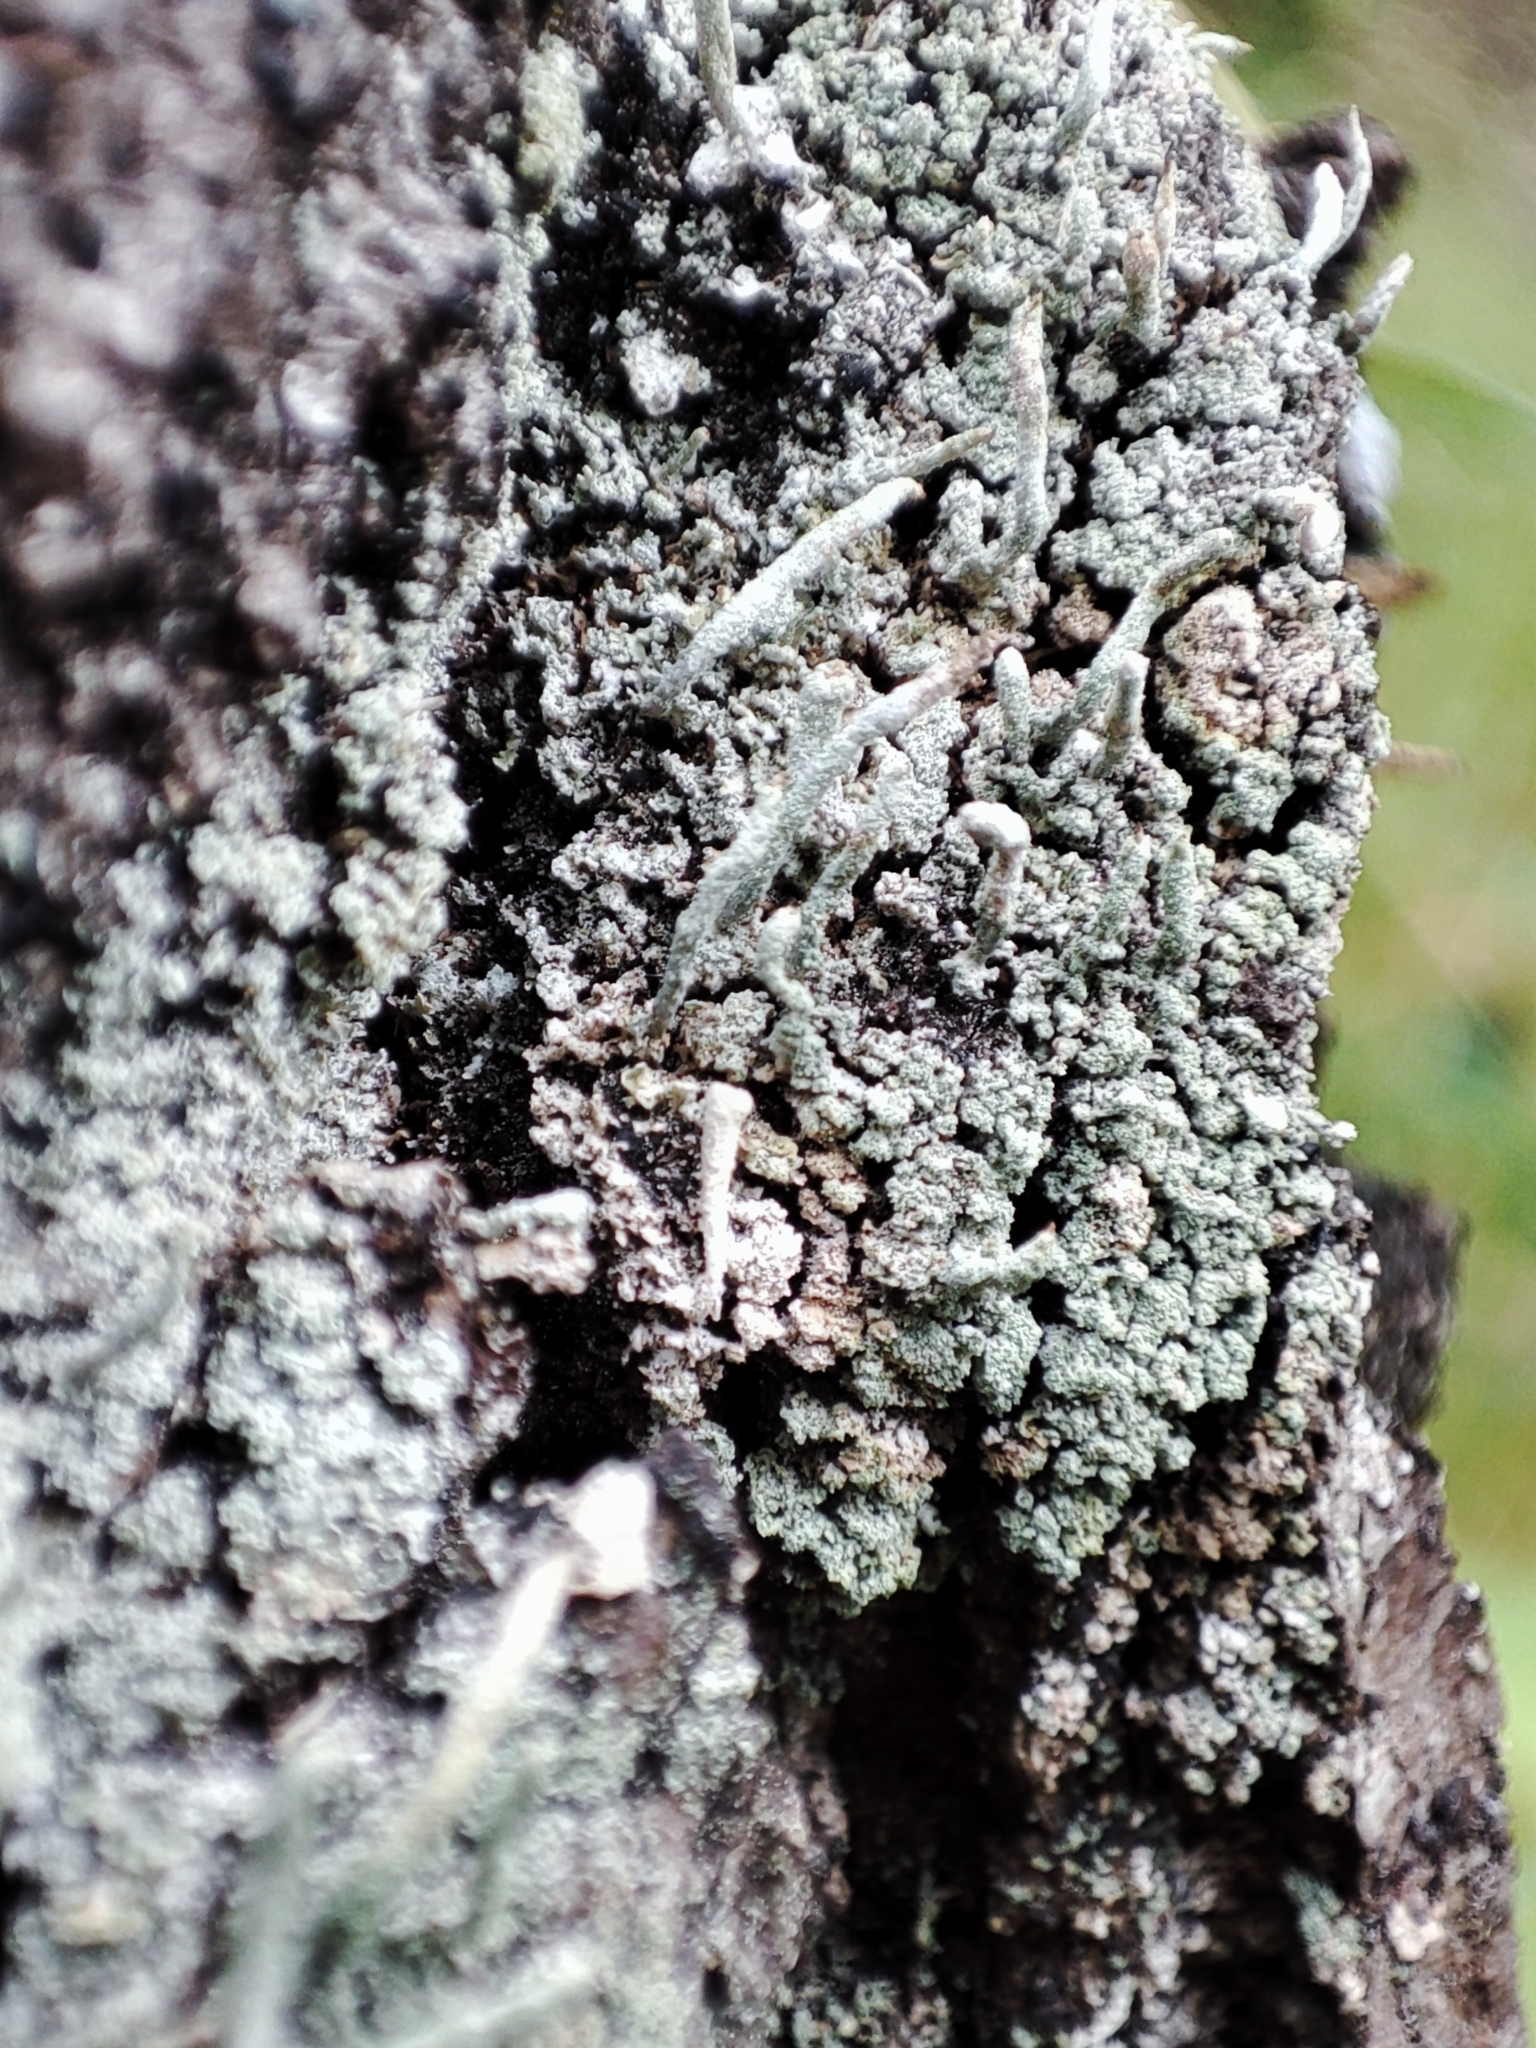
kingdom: Fungi
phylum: Ascomycota
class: Lecanoromycetes
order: Lecanorales
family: Cladoniaceae
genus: Cladonia
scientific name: Cladonia coniocraea
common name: Common powderhorn
